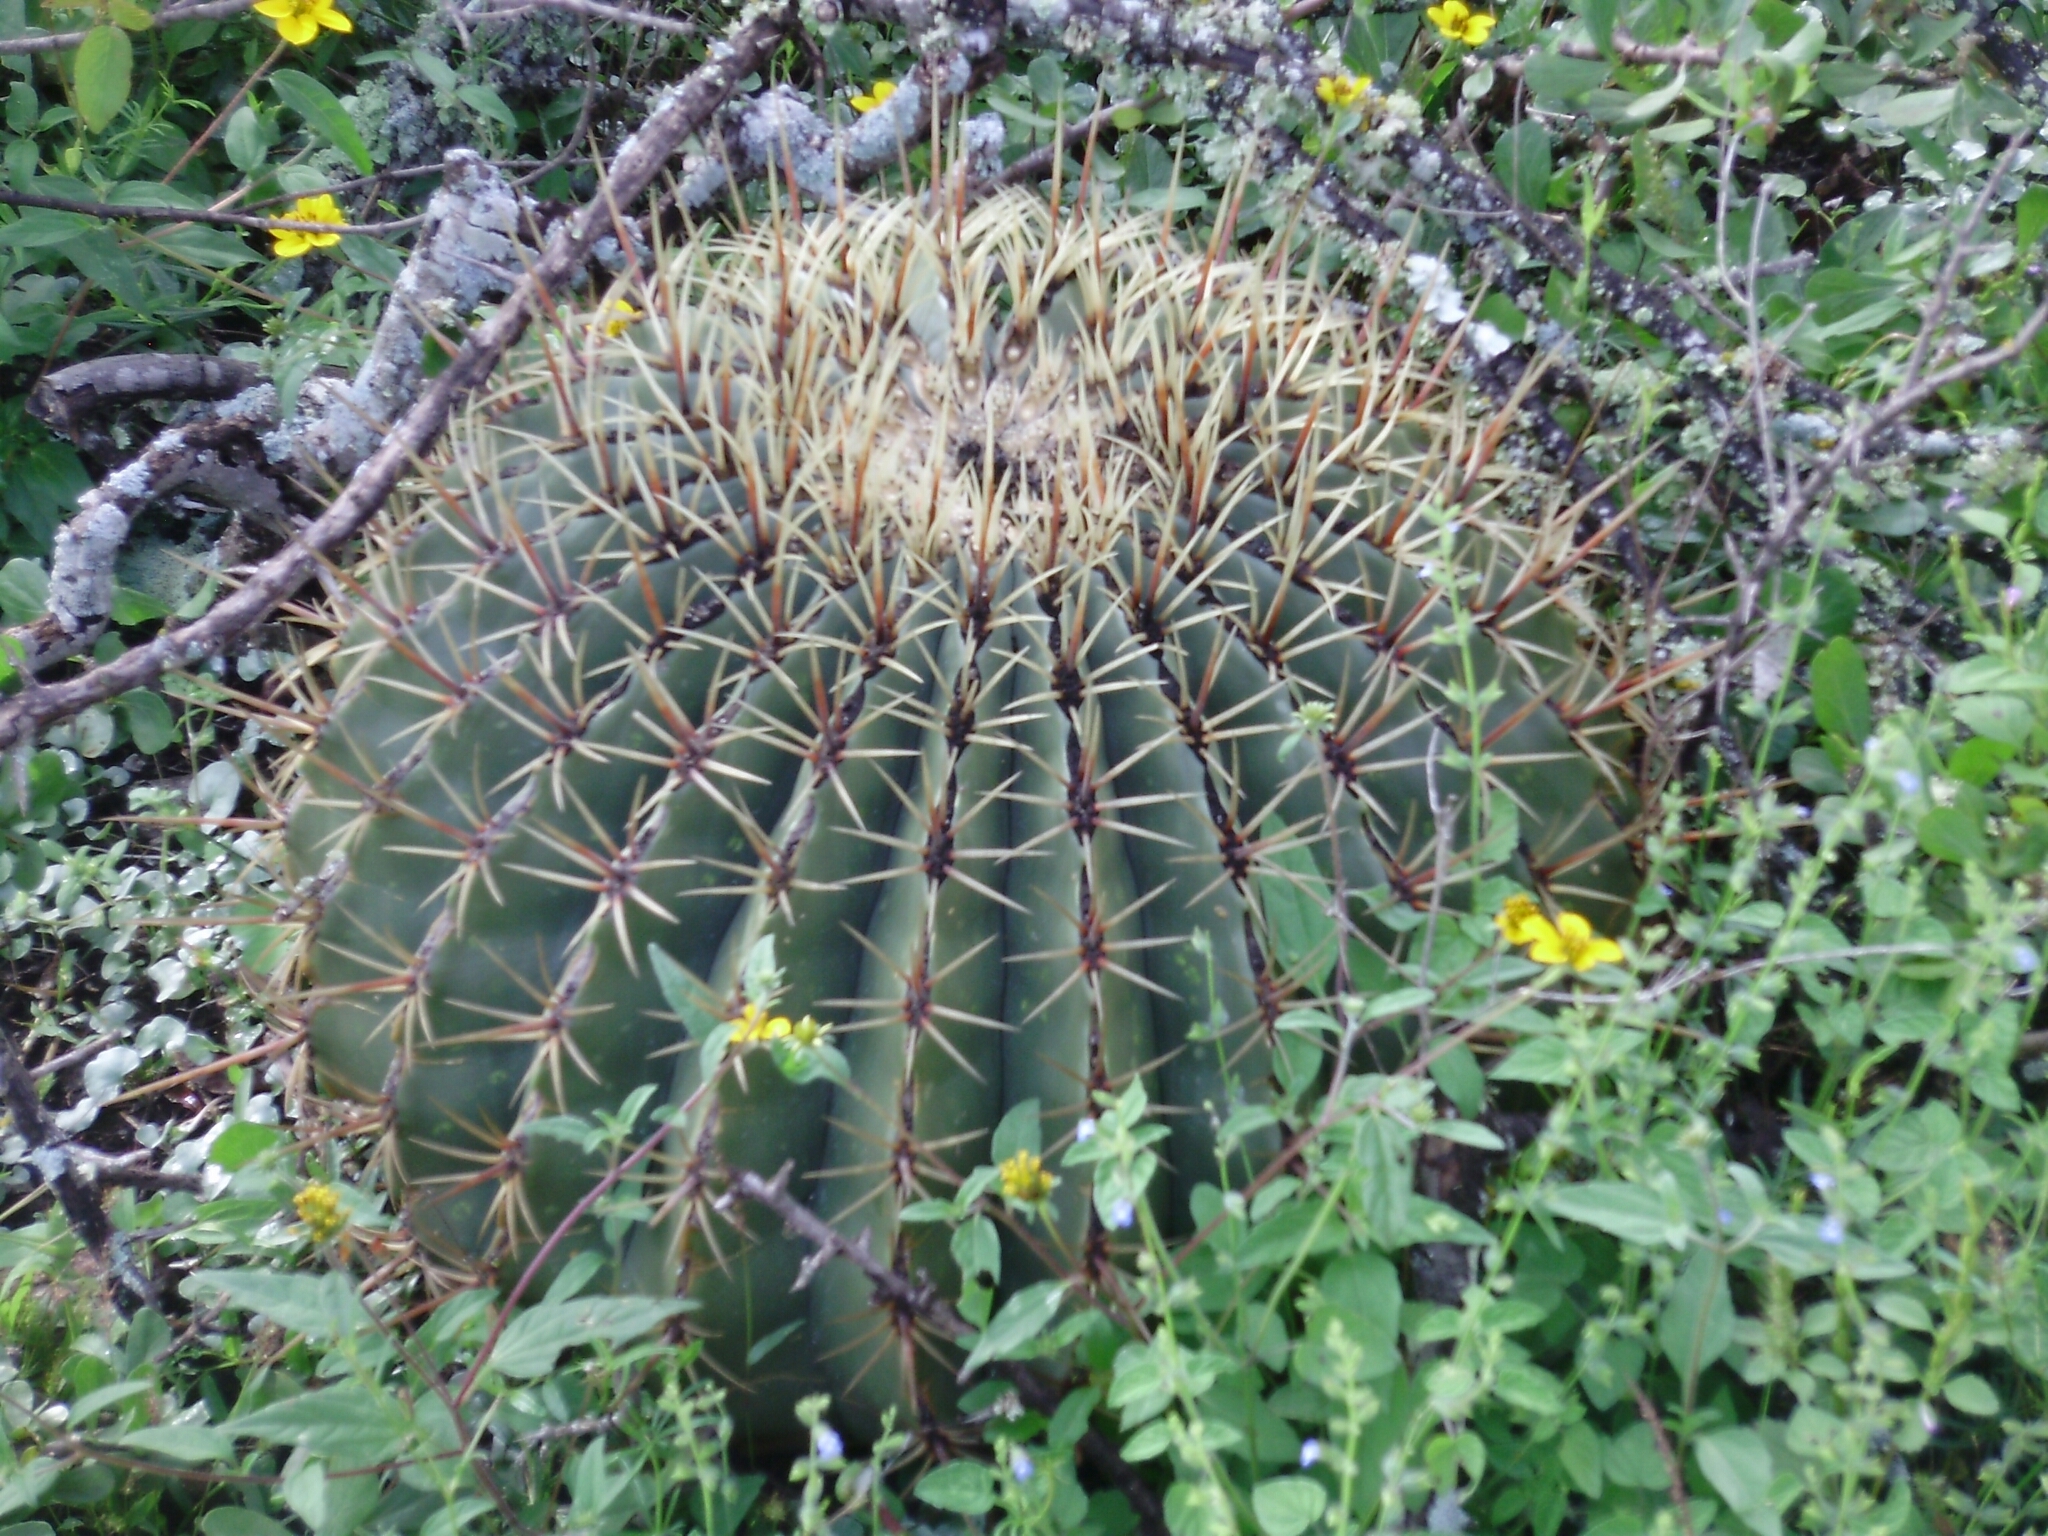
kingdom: Plantae
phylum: Tracheophyta
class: Magnoliopsida
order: Caryophyllales
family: Cactaceae
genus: Bisnaga
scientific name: Bisnaga histrix
